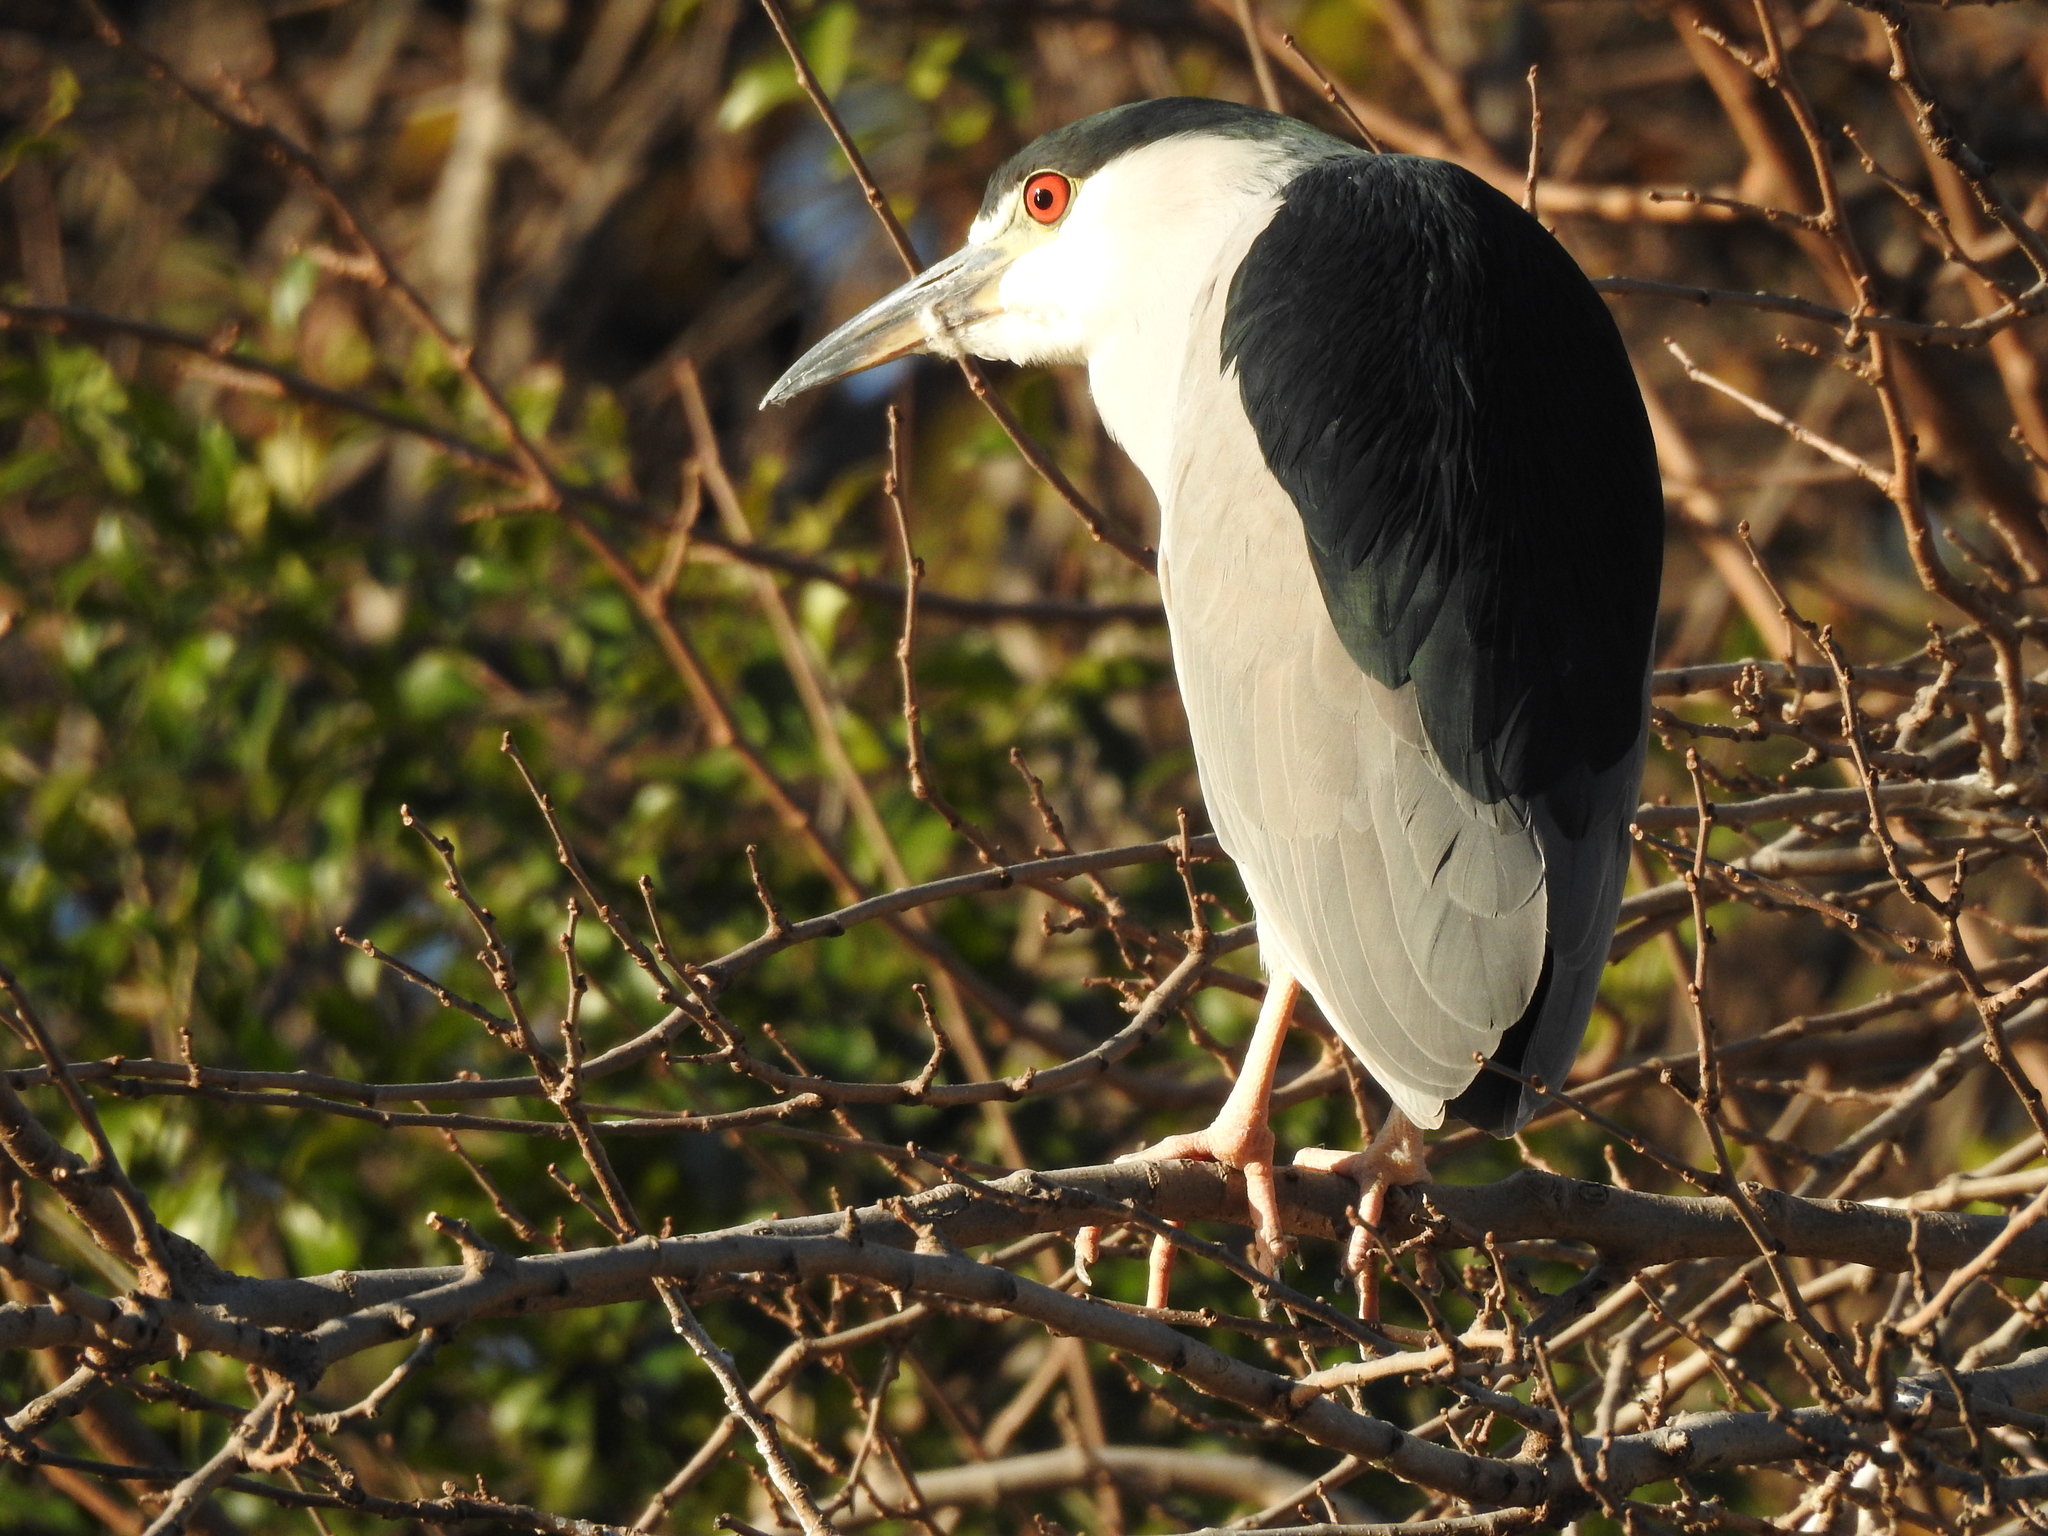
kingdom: Animalia
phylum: Chordata
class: Aves
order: Pelecaniformes
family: Ardeidae
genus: Nycticorax
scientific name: Nycticorax nycticorax
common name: Black-crowned night heron
